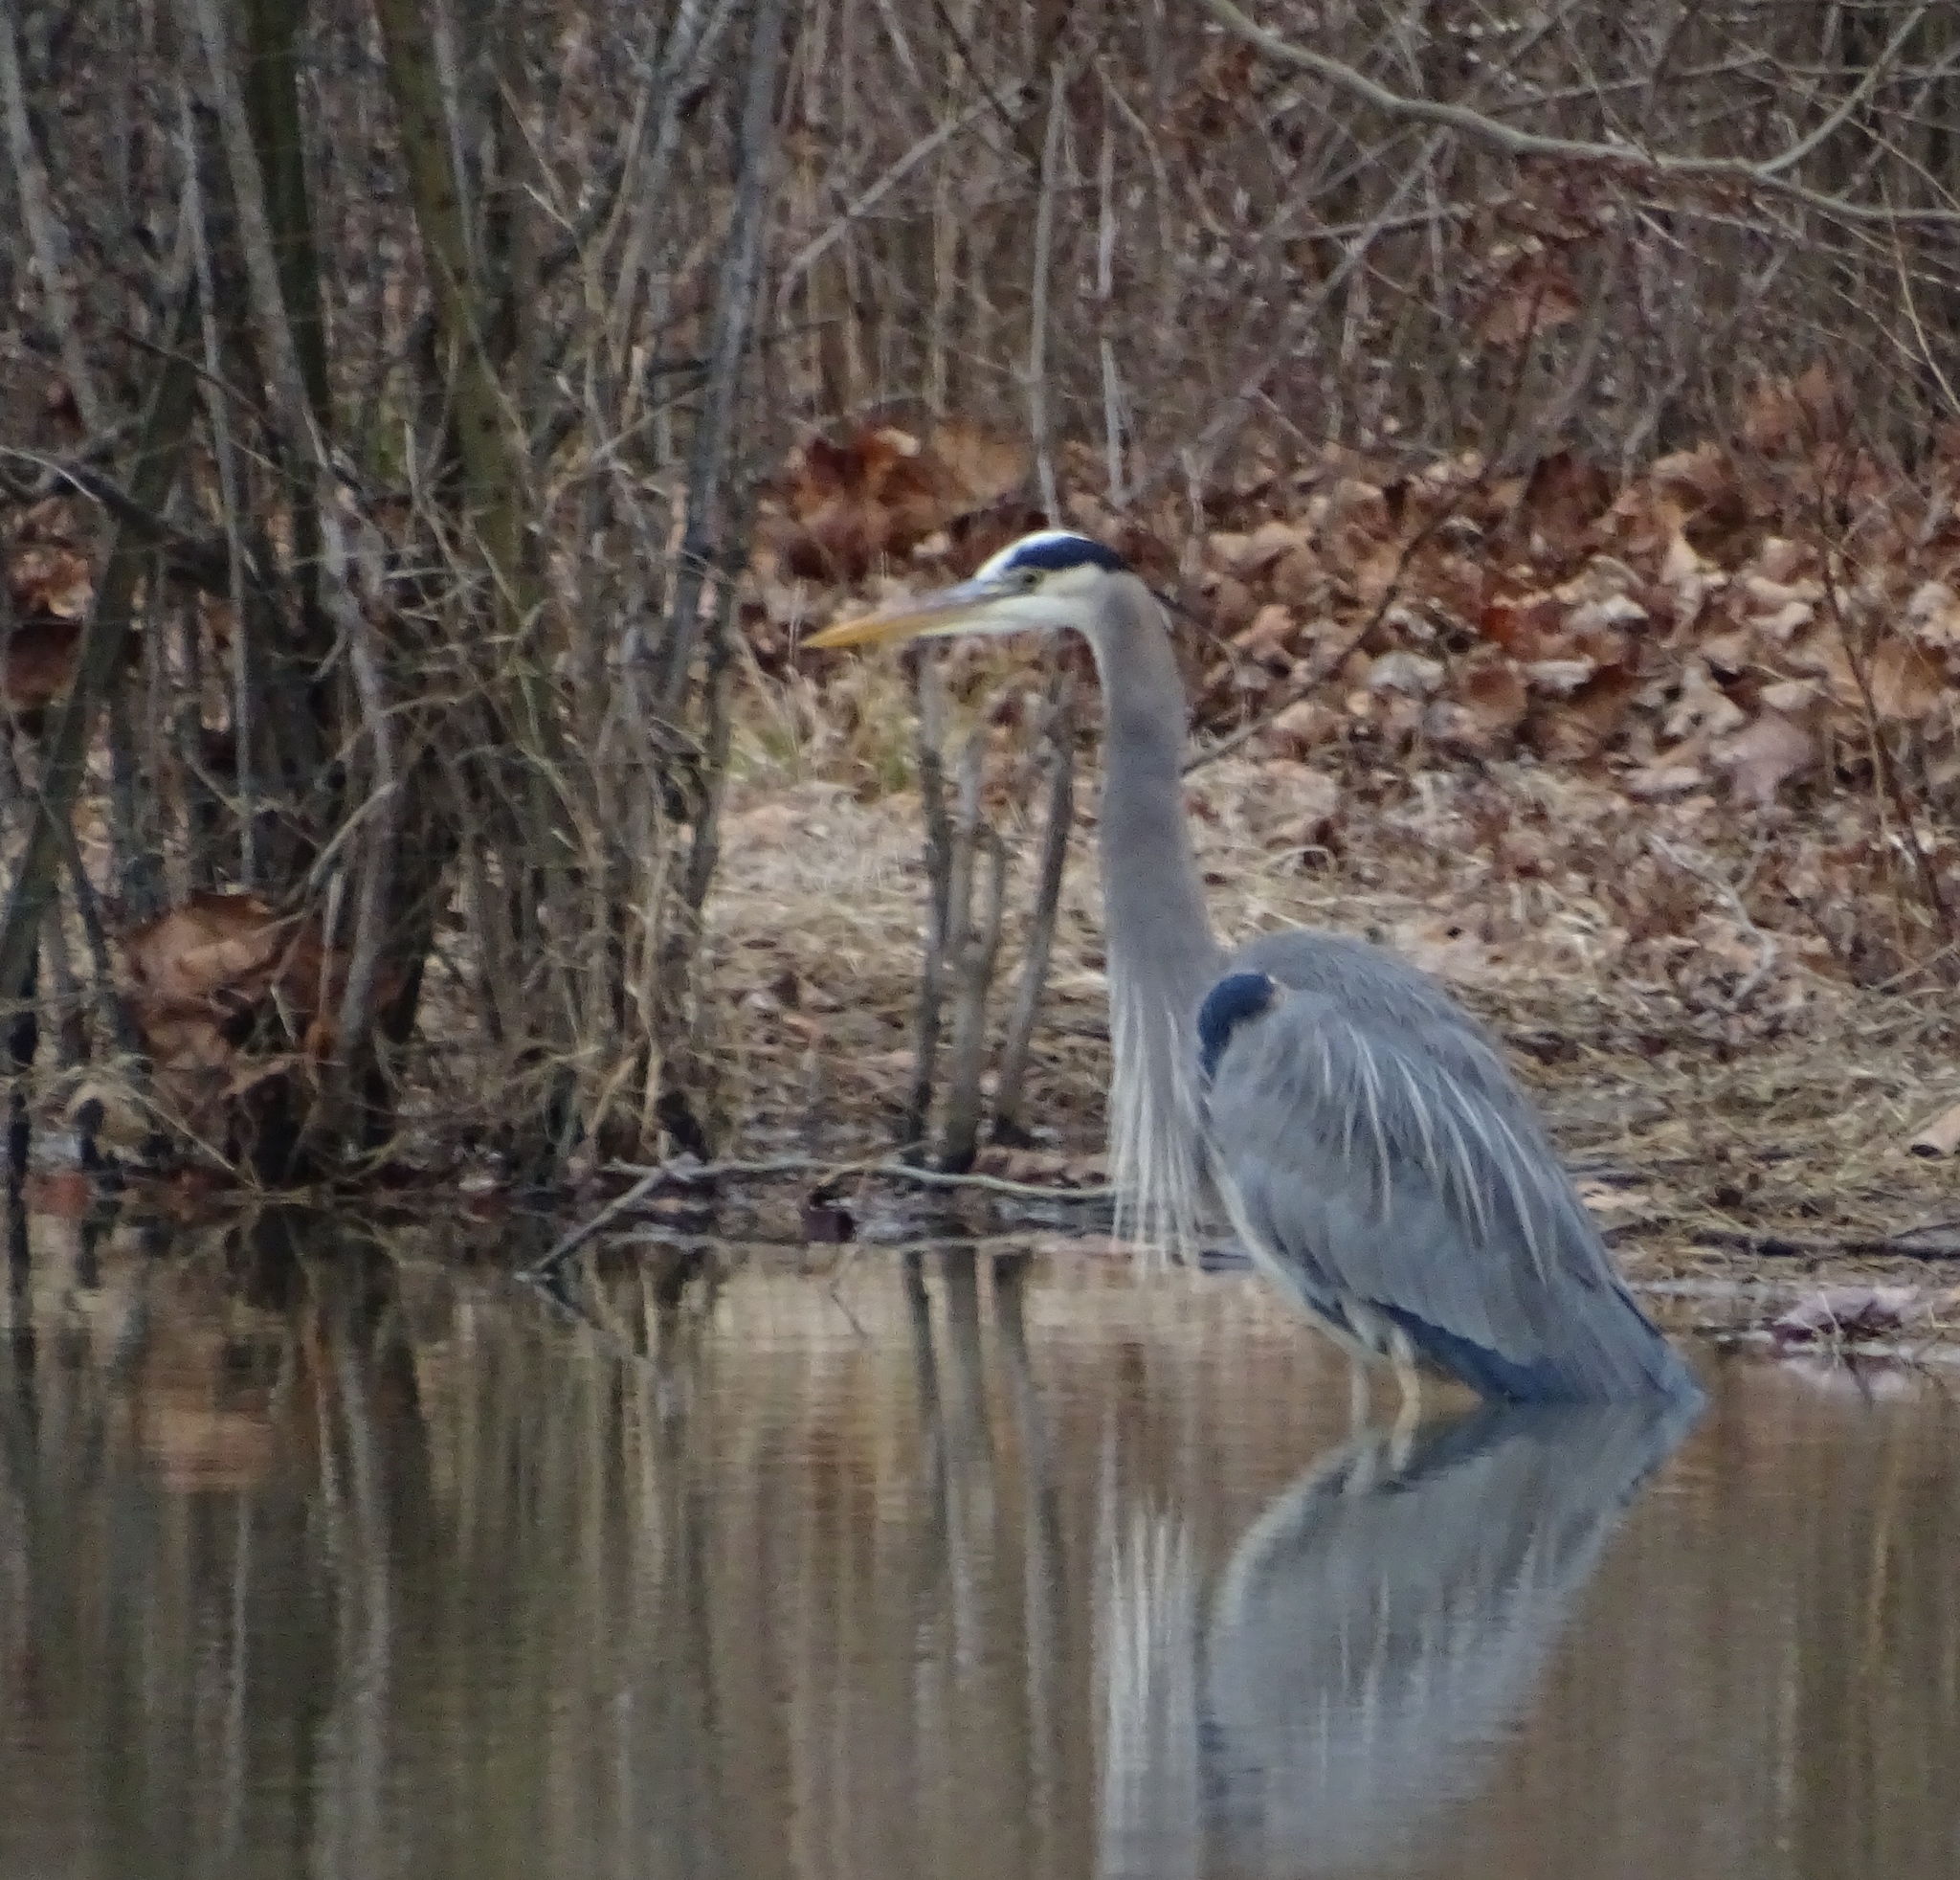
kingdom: Animalia
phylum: Chordata
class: Aves
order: Pelecaniformes
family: Ardeidae
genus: Ardea
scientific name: Ardea herodias
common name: Great blue heron
